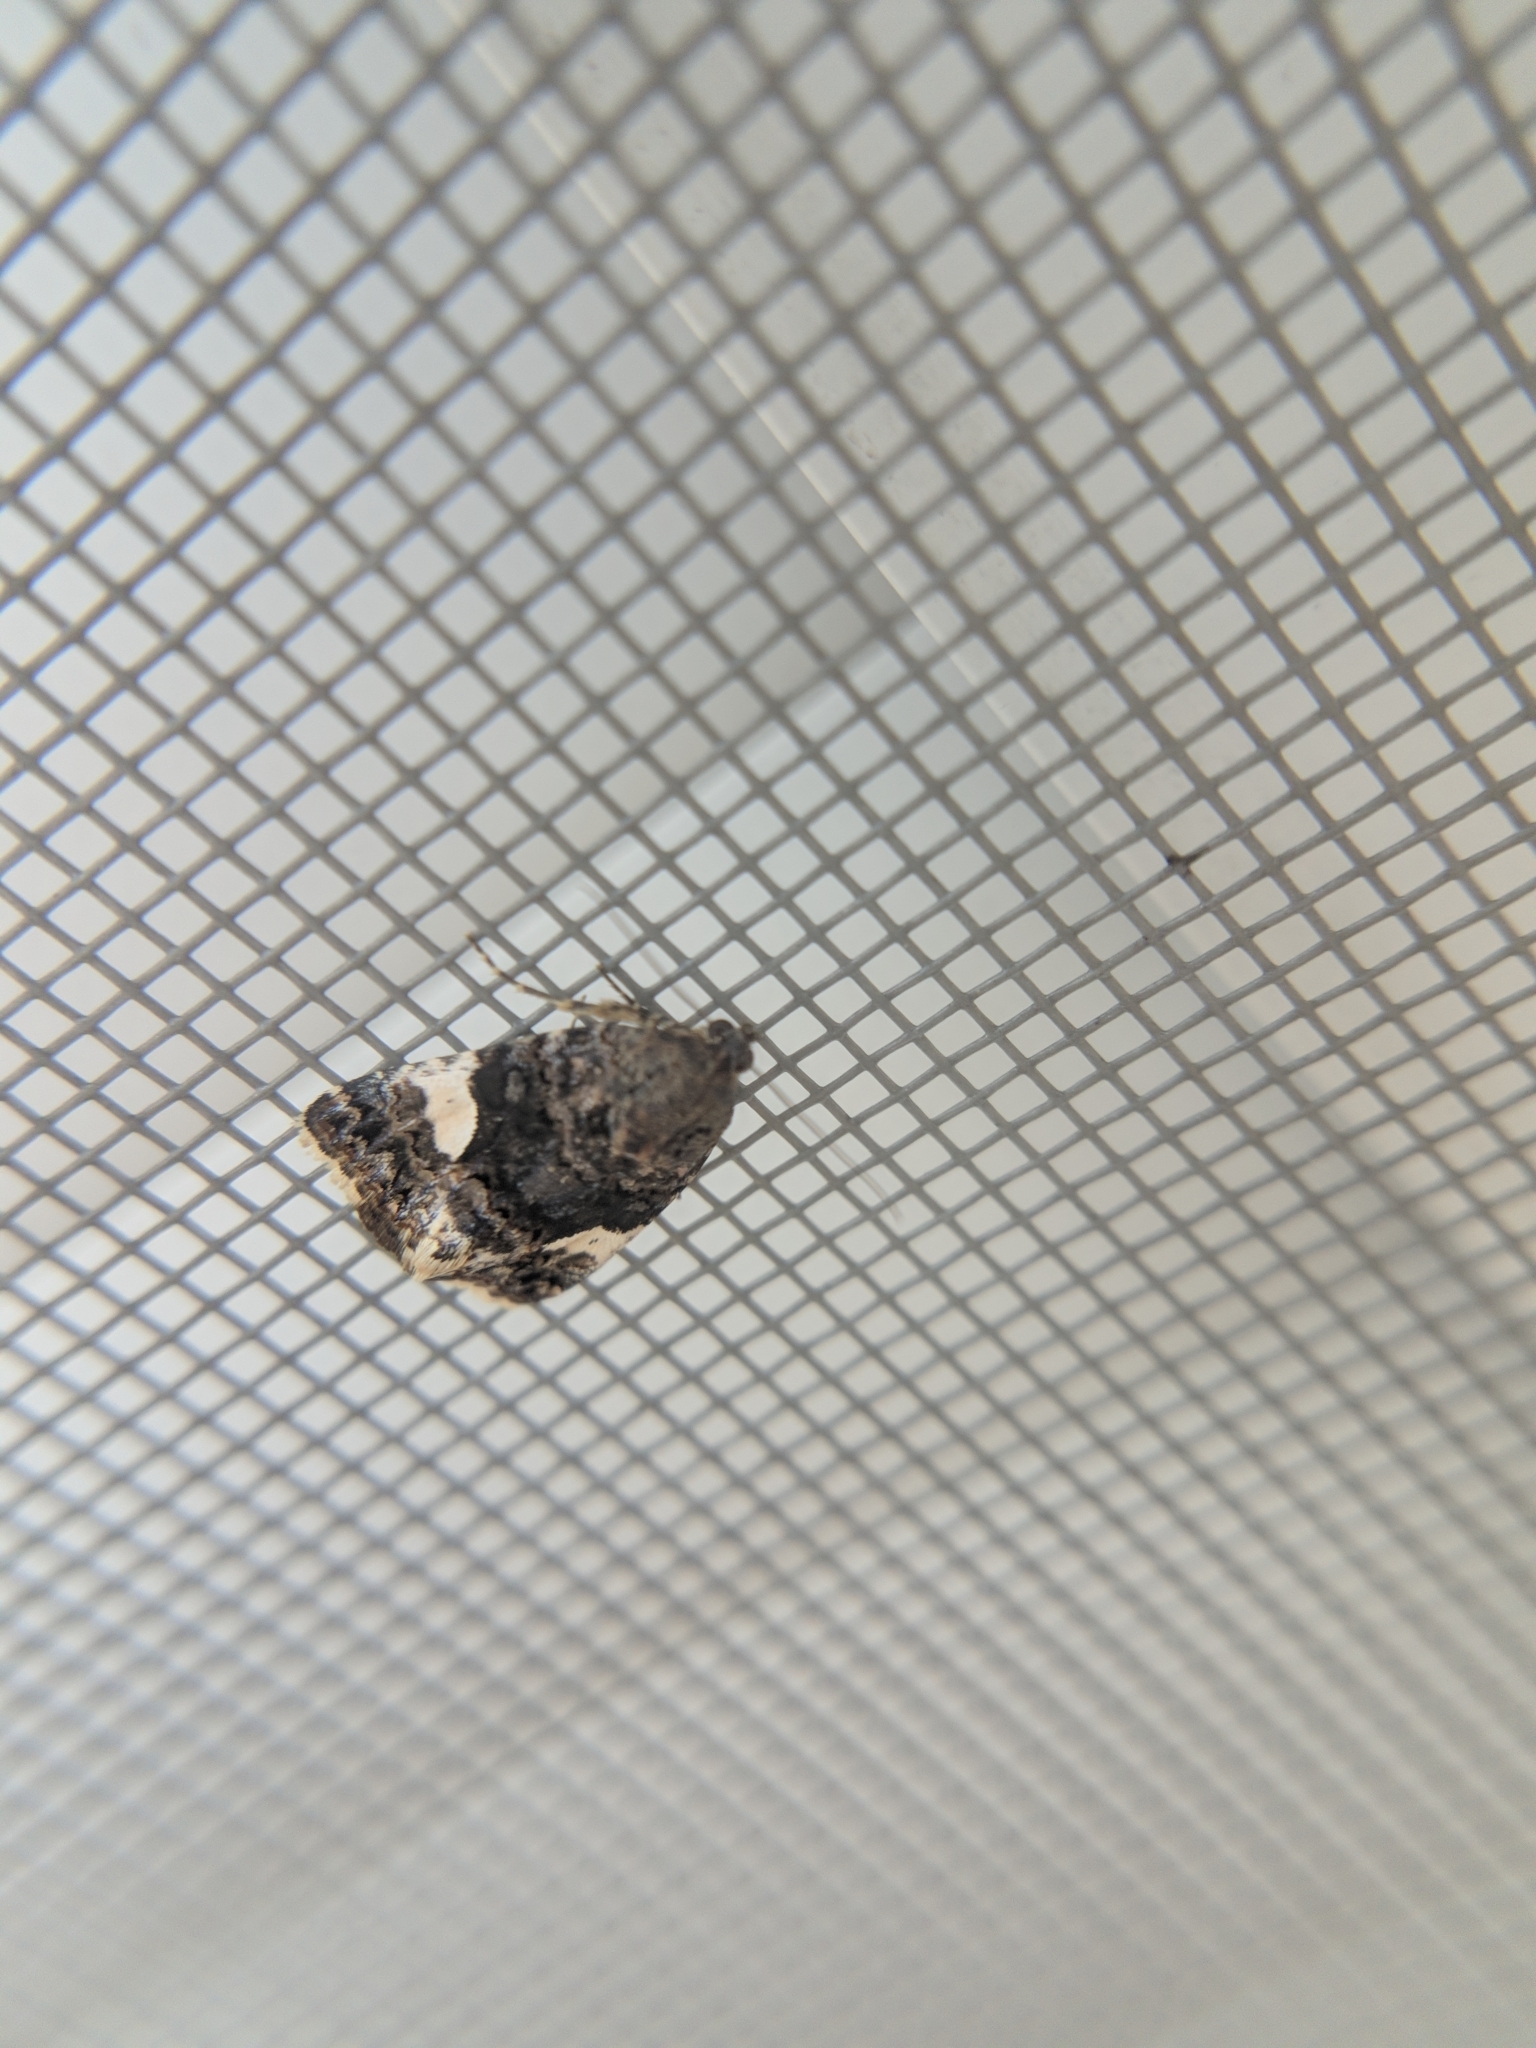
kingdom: Animalia
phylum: Arthropoda
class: Insecta
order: Lepidoptera
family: Erebidae
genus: Tyta
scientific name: Tyta luctuosa
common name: Four-spotted
